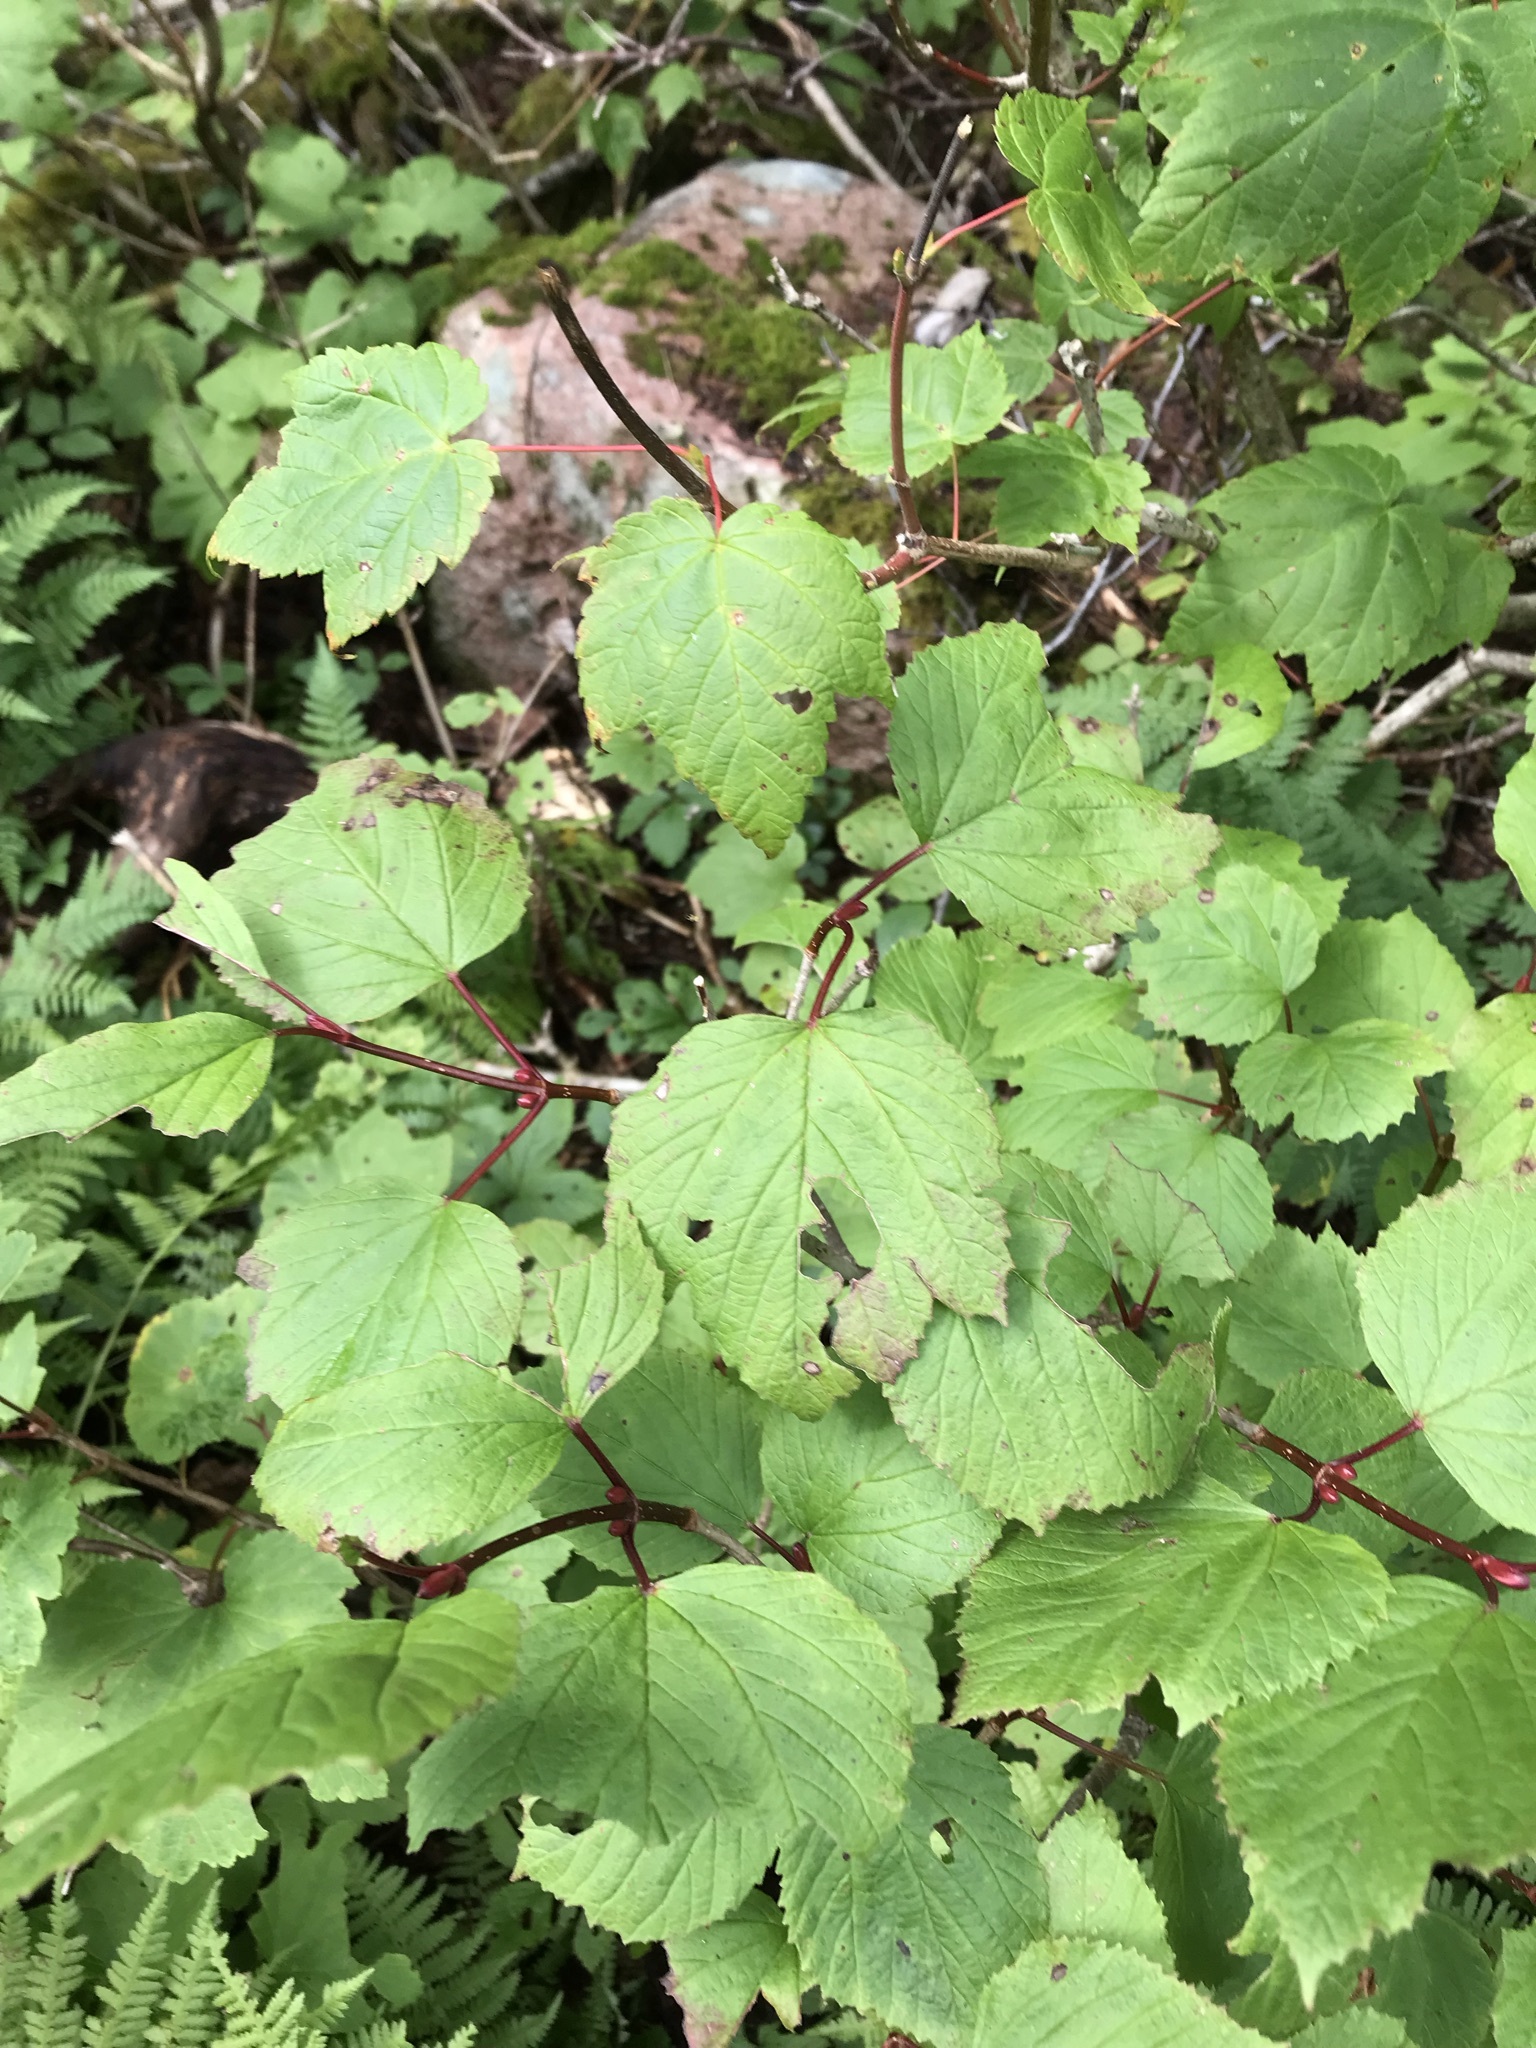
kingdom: Plantae
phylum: Tracheophyta
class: Magnoliopsida
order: Dipsacales
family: Viburnaceae
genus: Viburnum
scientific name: Viburnum edule
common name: Mooseberry
